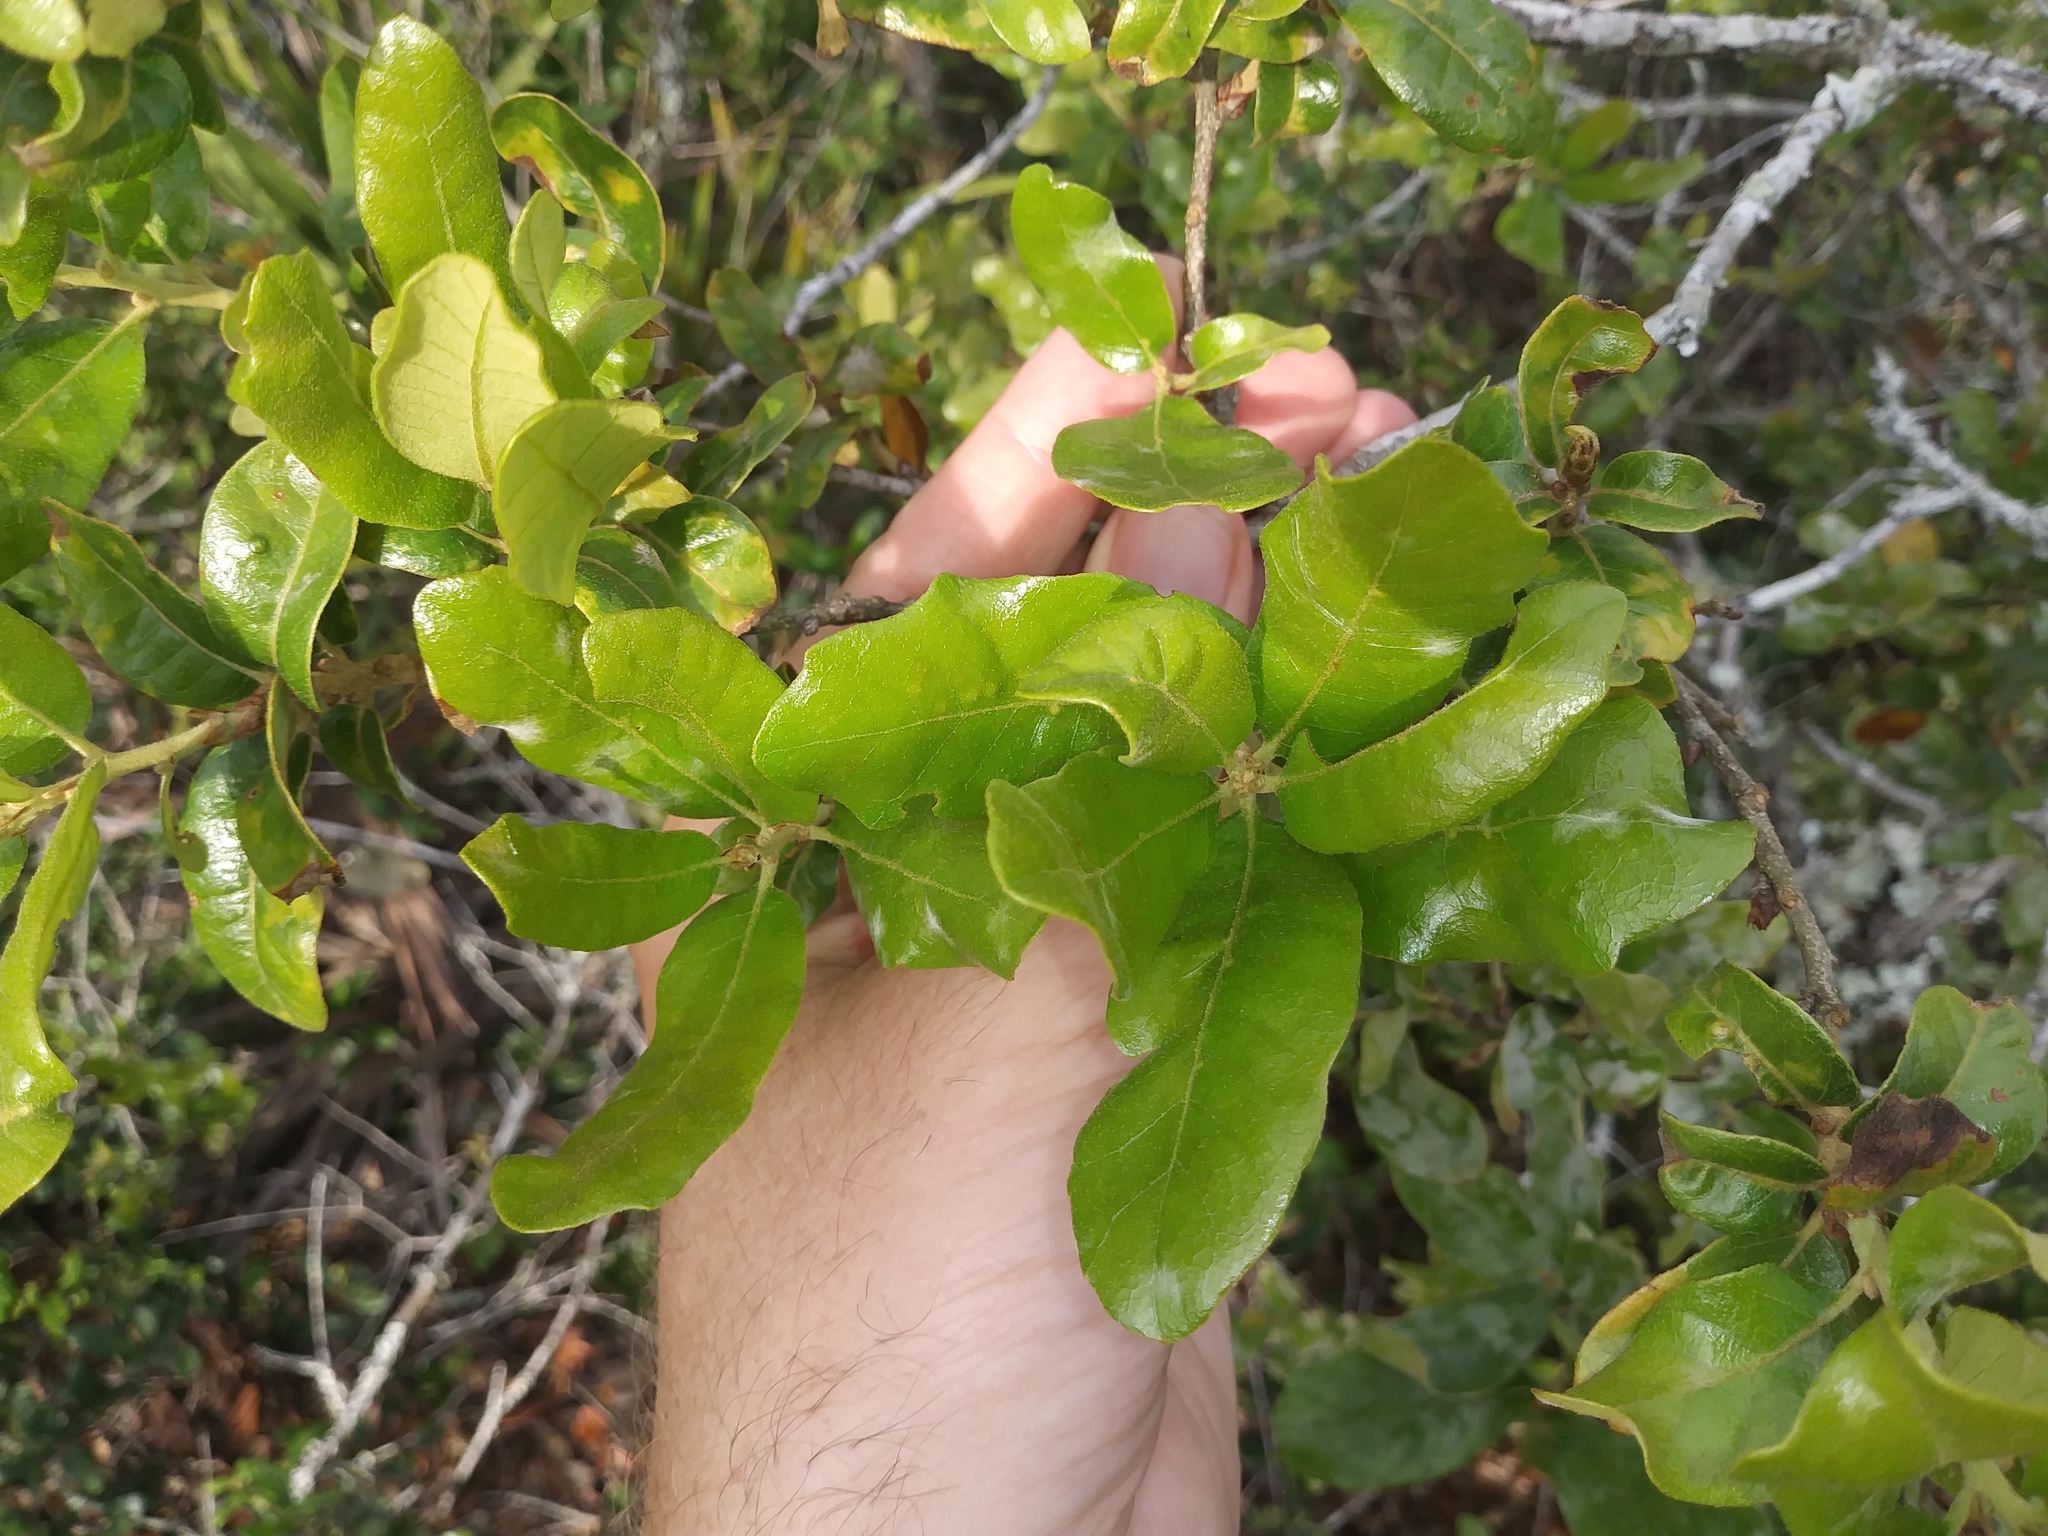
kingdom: Plantae
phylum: Tracheophyta
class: Magnoliopsida
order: Fagales
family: Fagaceae
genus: Quercus
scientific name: Quercus chapmanii
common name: Chapman oak
